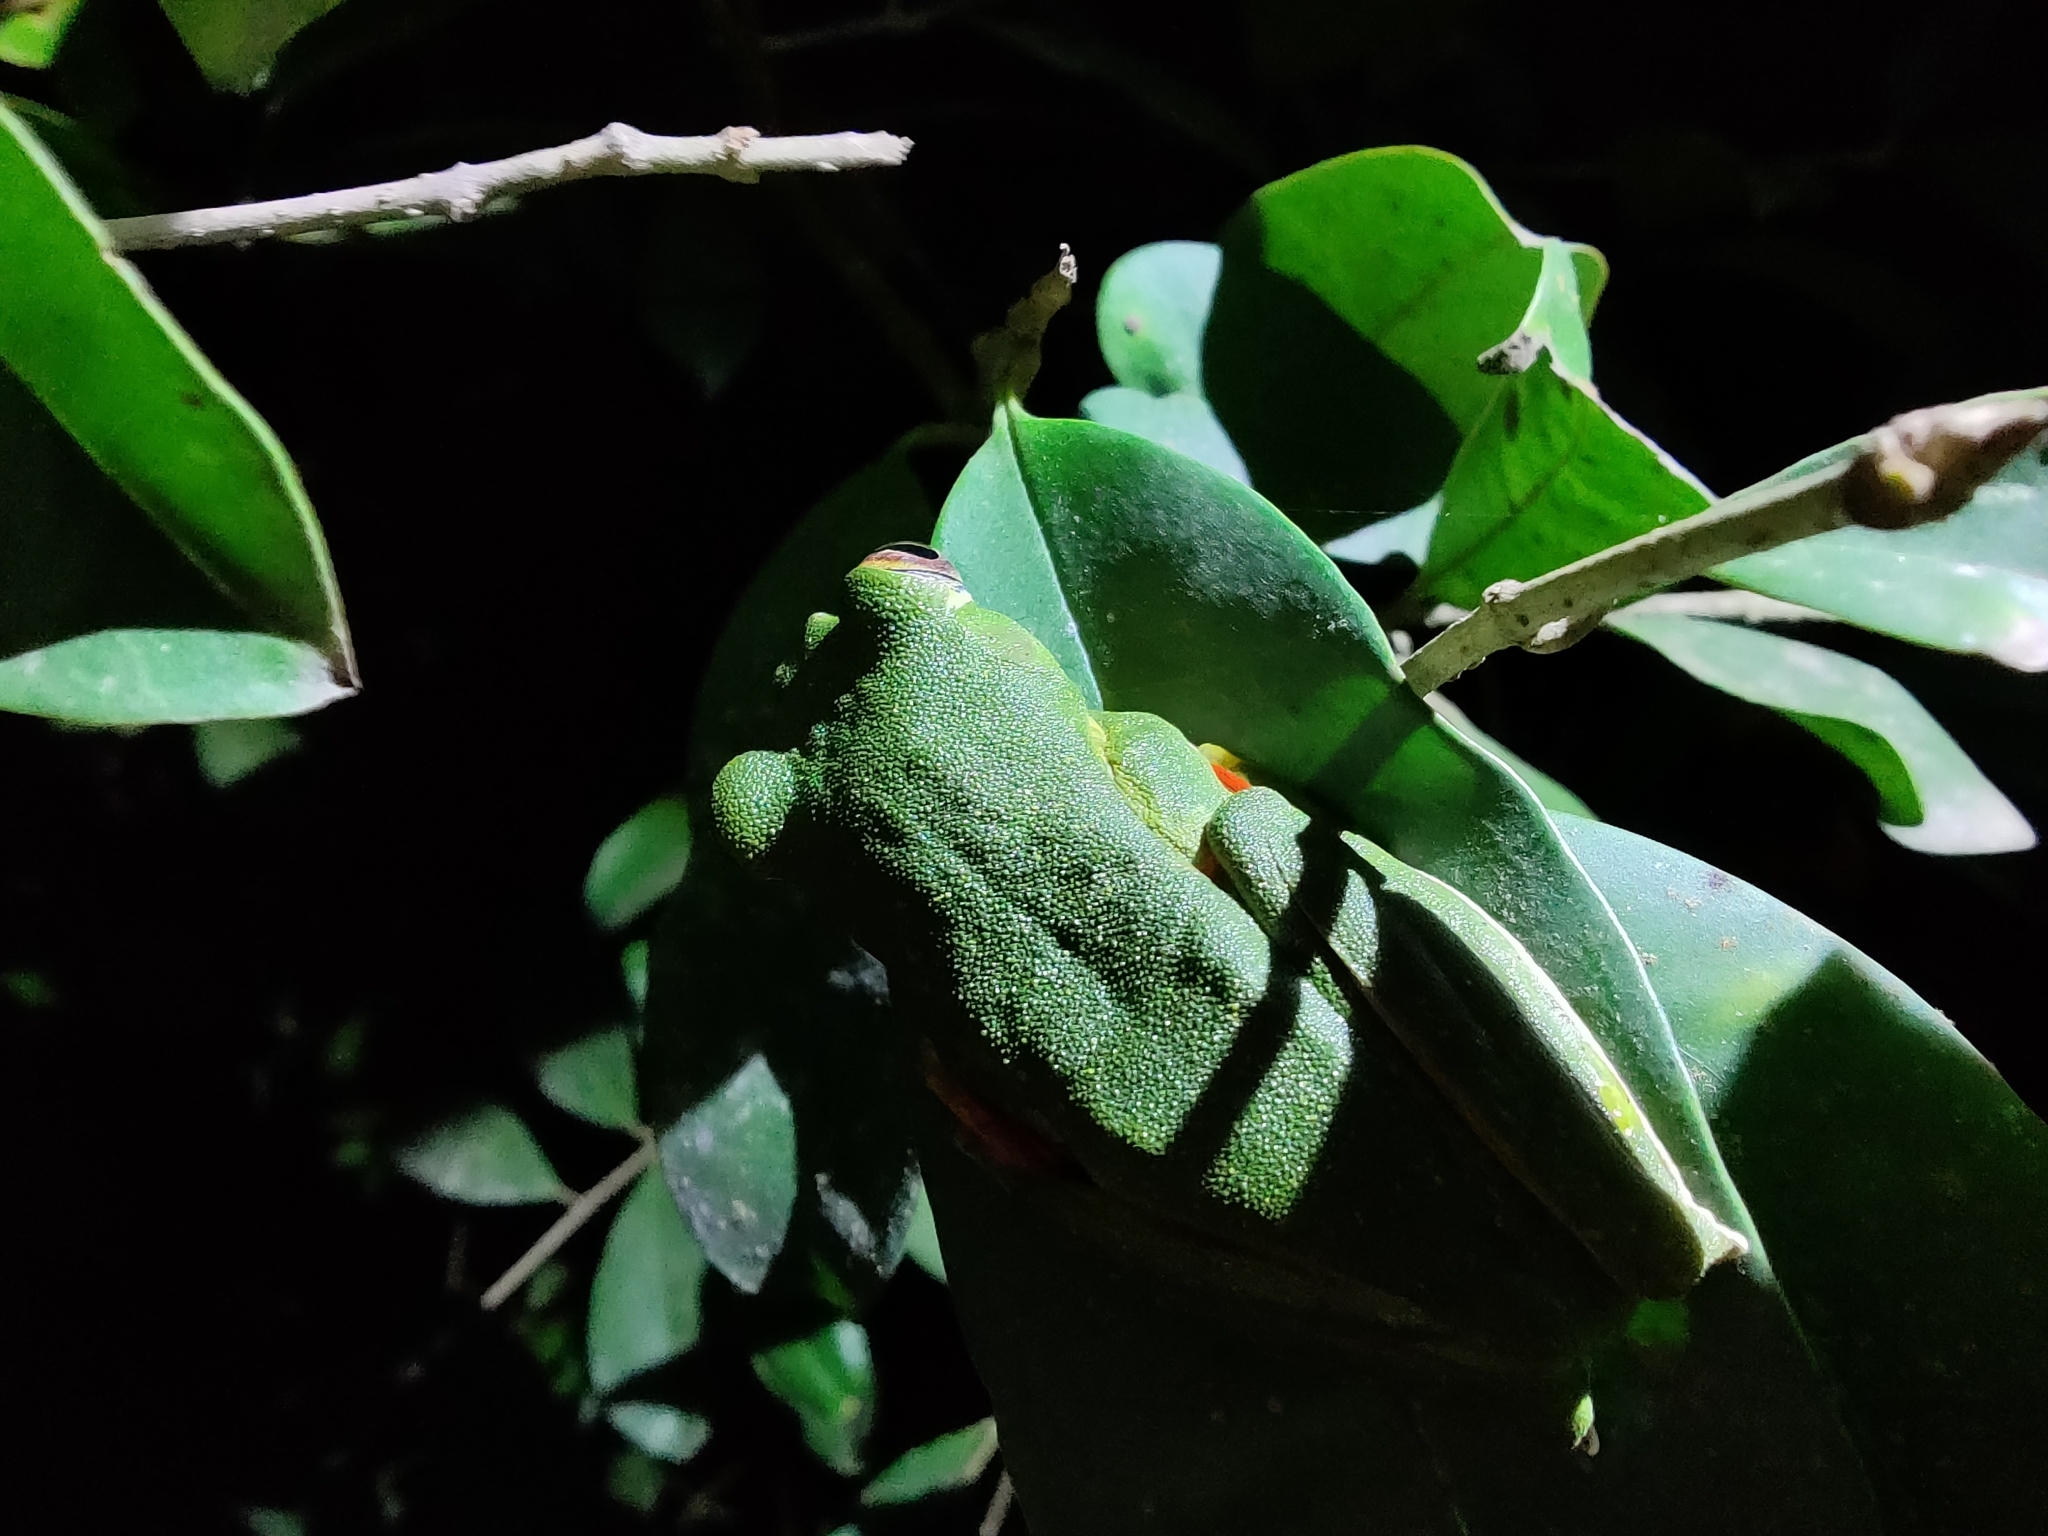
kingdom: Animalia
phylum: Chordata
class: Amphibia
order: Anura
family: Rhacophoridae
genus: Rhacophorus
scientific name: Rhacophorus malabaricus
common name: Malabar gliding frog
